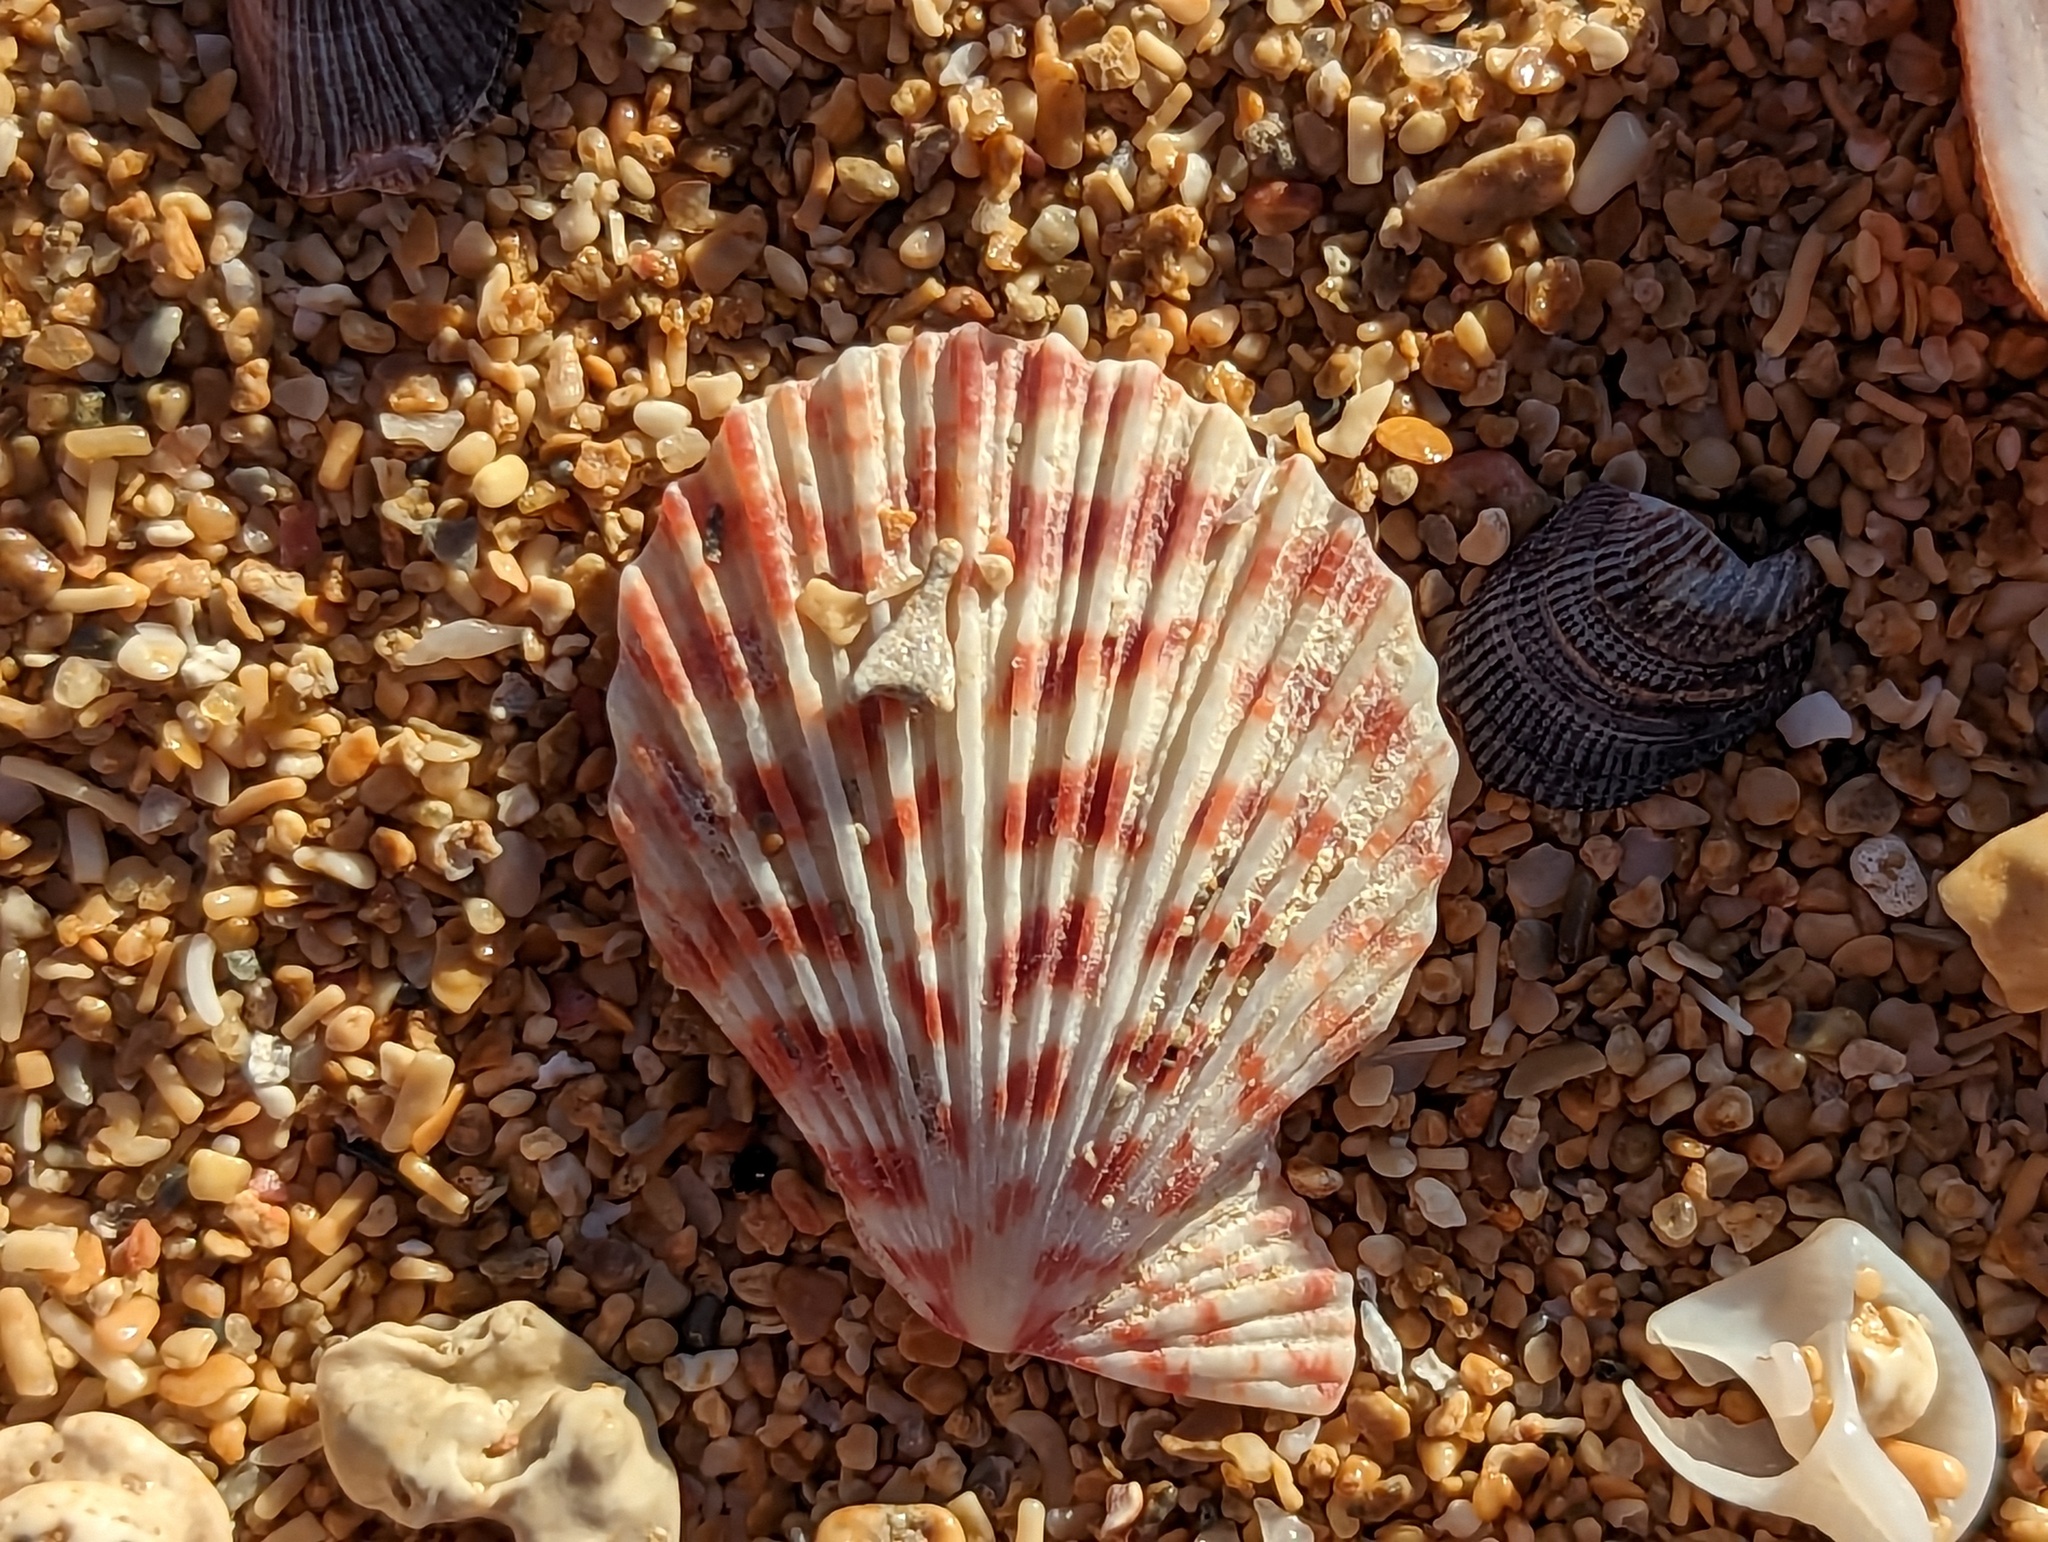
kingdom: Animalia
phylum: Mollusca
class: Bivalvia
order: Pectinida
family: Pectinidae
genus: Caribachlamys
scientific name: Caribachlamys ornata
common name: Ornate scallop
